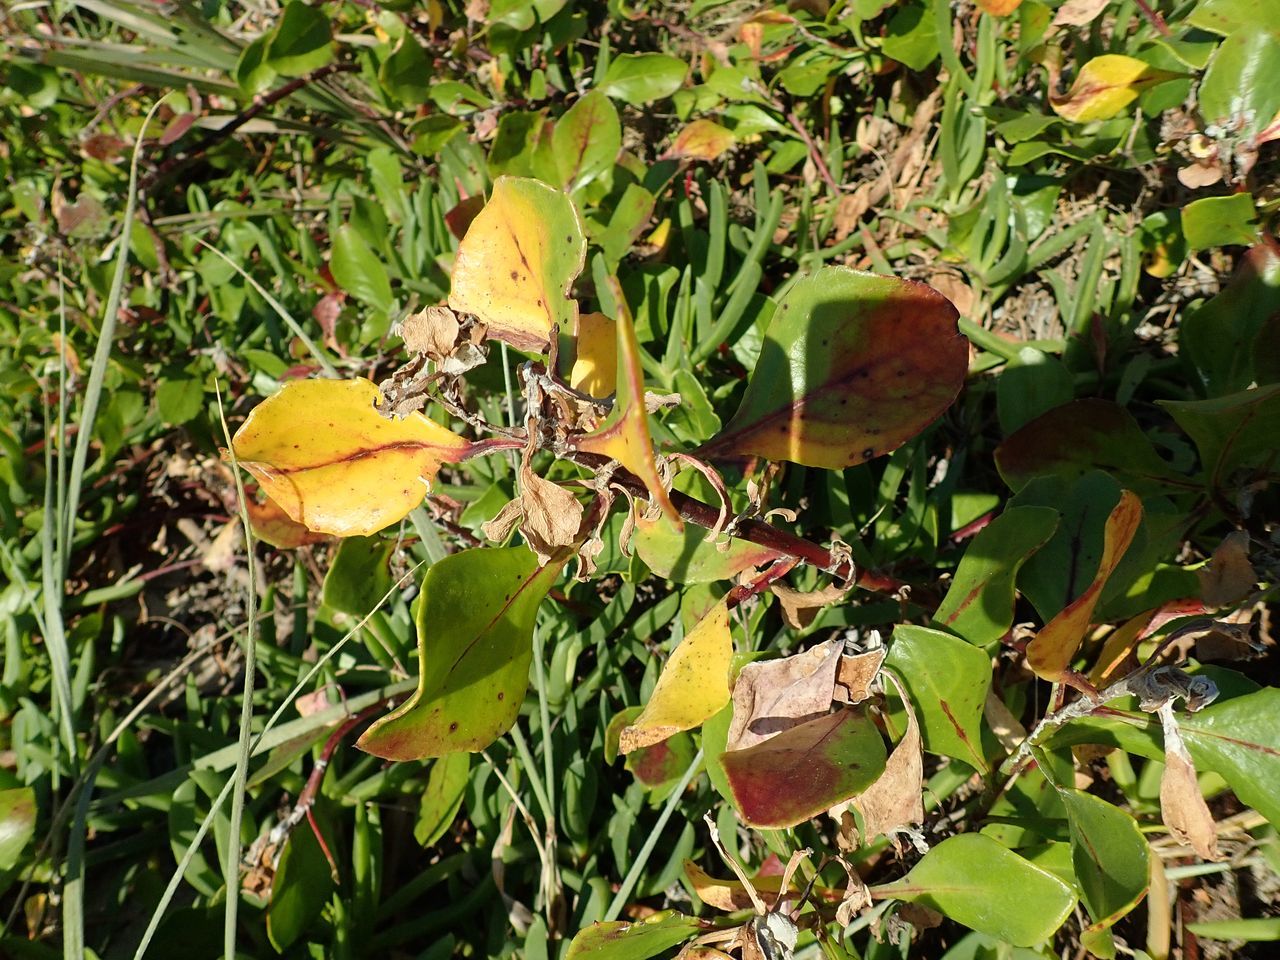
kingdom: Plantae
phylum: Tracheophyta
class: Magnoliopsida
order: Asterales
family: Asteraceae
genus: Osteospermum
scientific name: Osteospermum moniliferum
